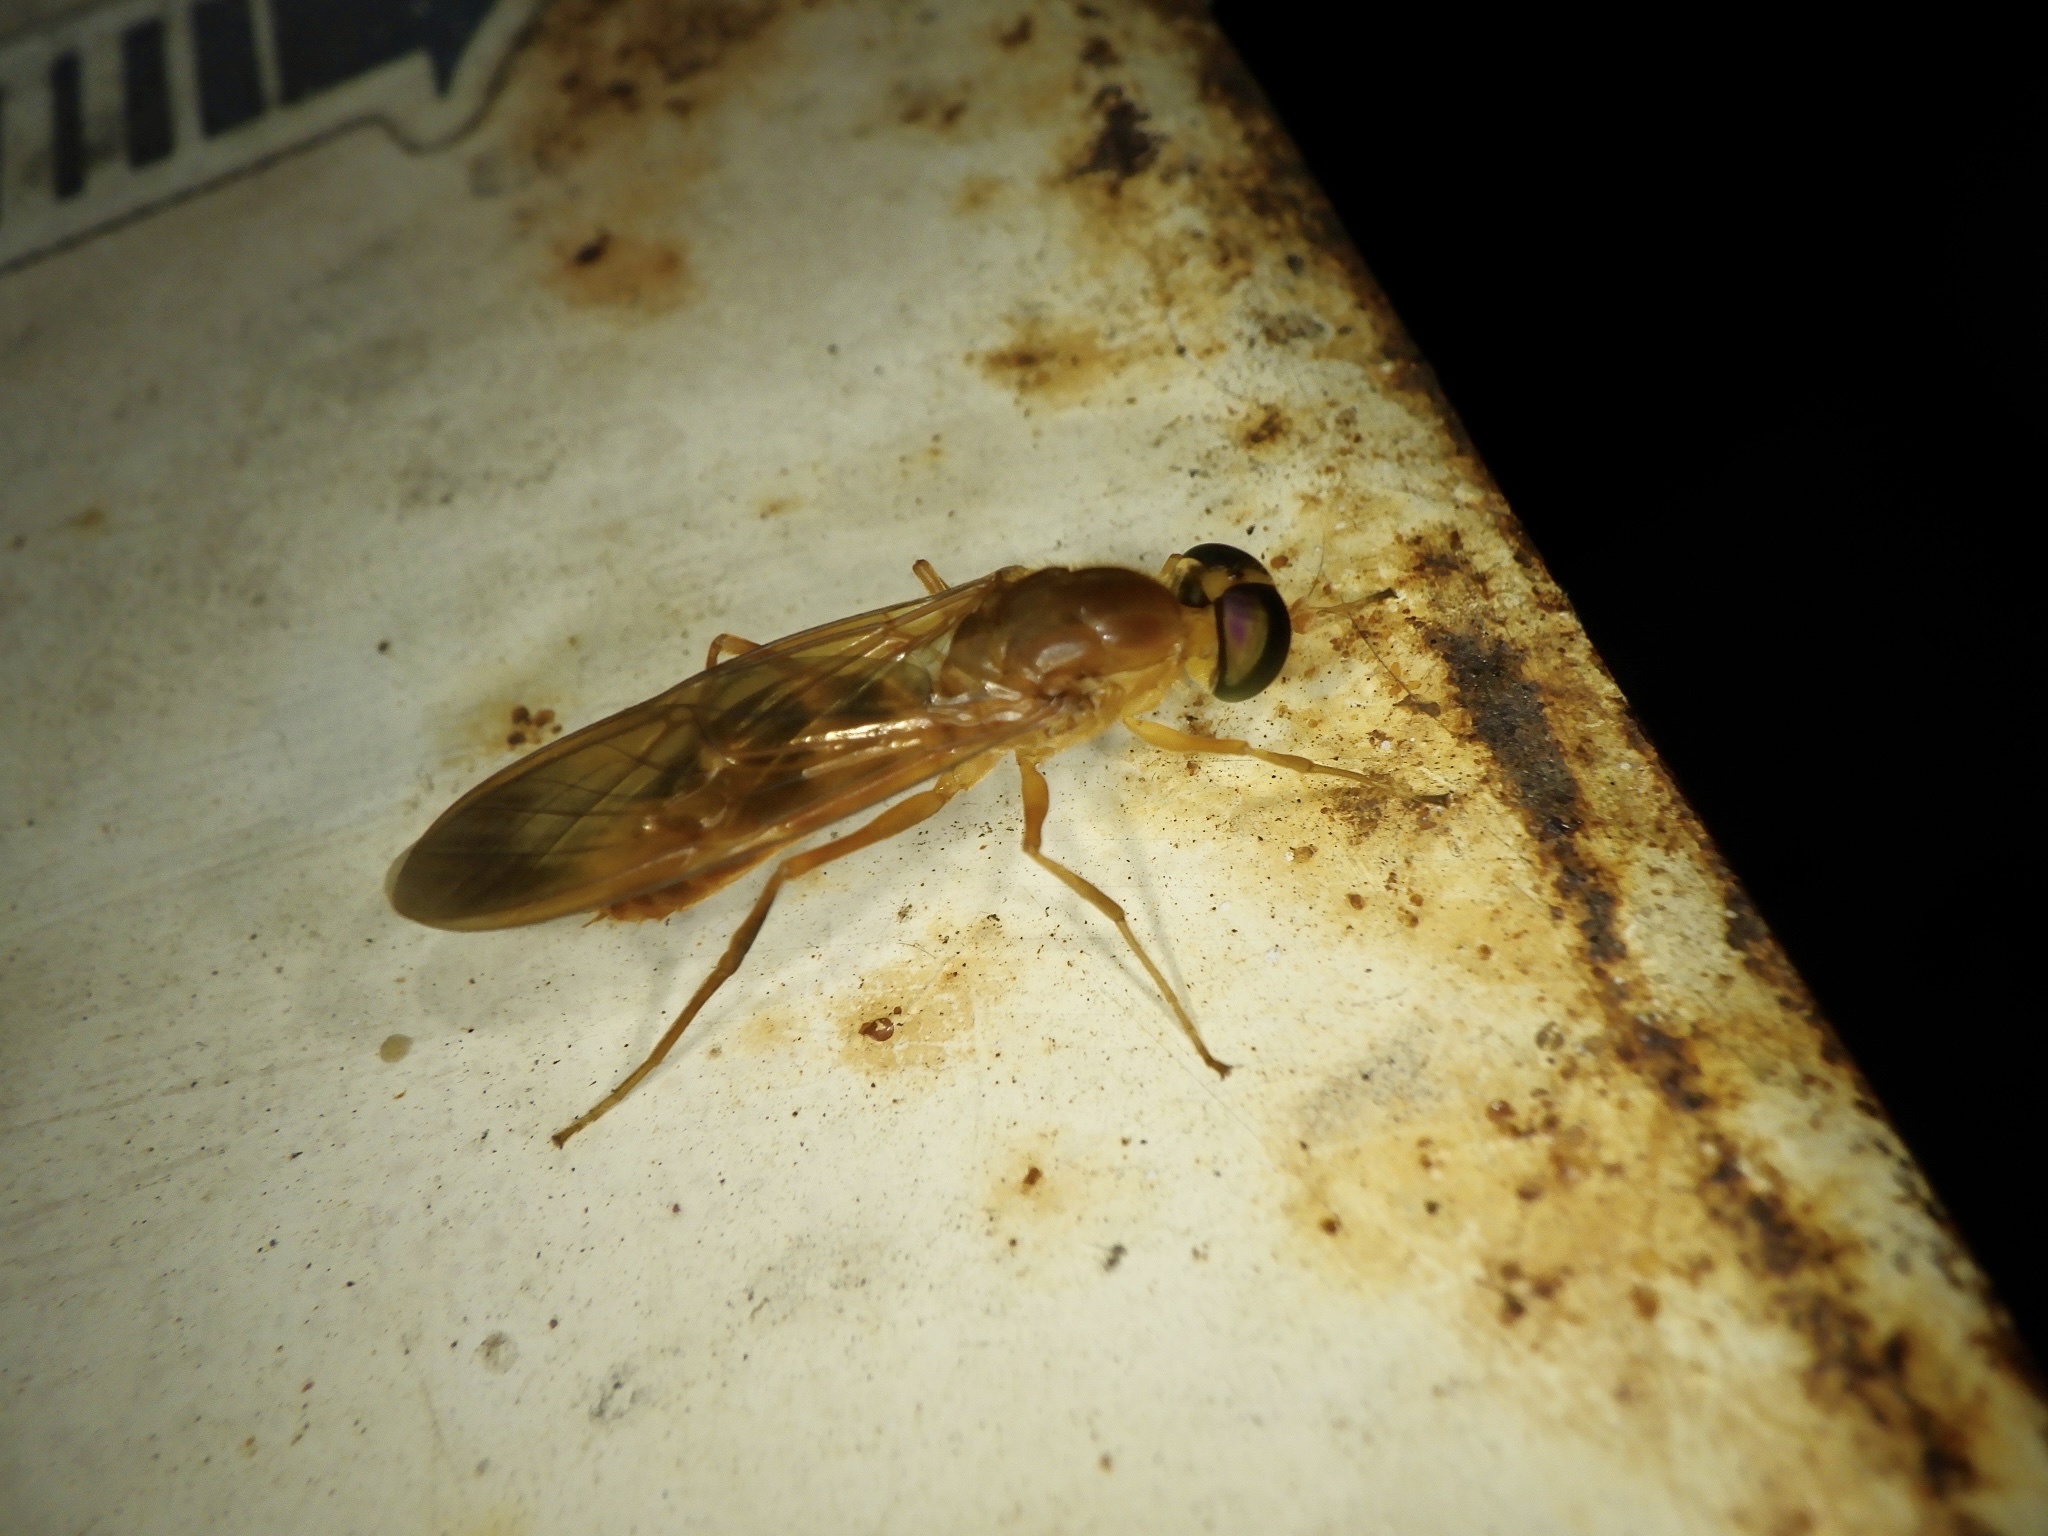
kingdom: Animalia
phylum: Arthropoda
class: Insecta
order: Diptera
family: Stratiomyidae
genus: Ptecticus
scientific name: Ptecticus aurifer
